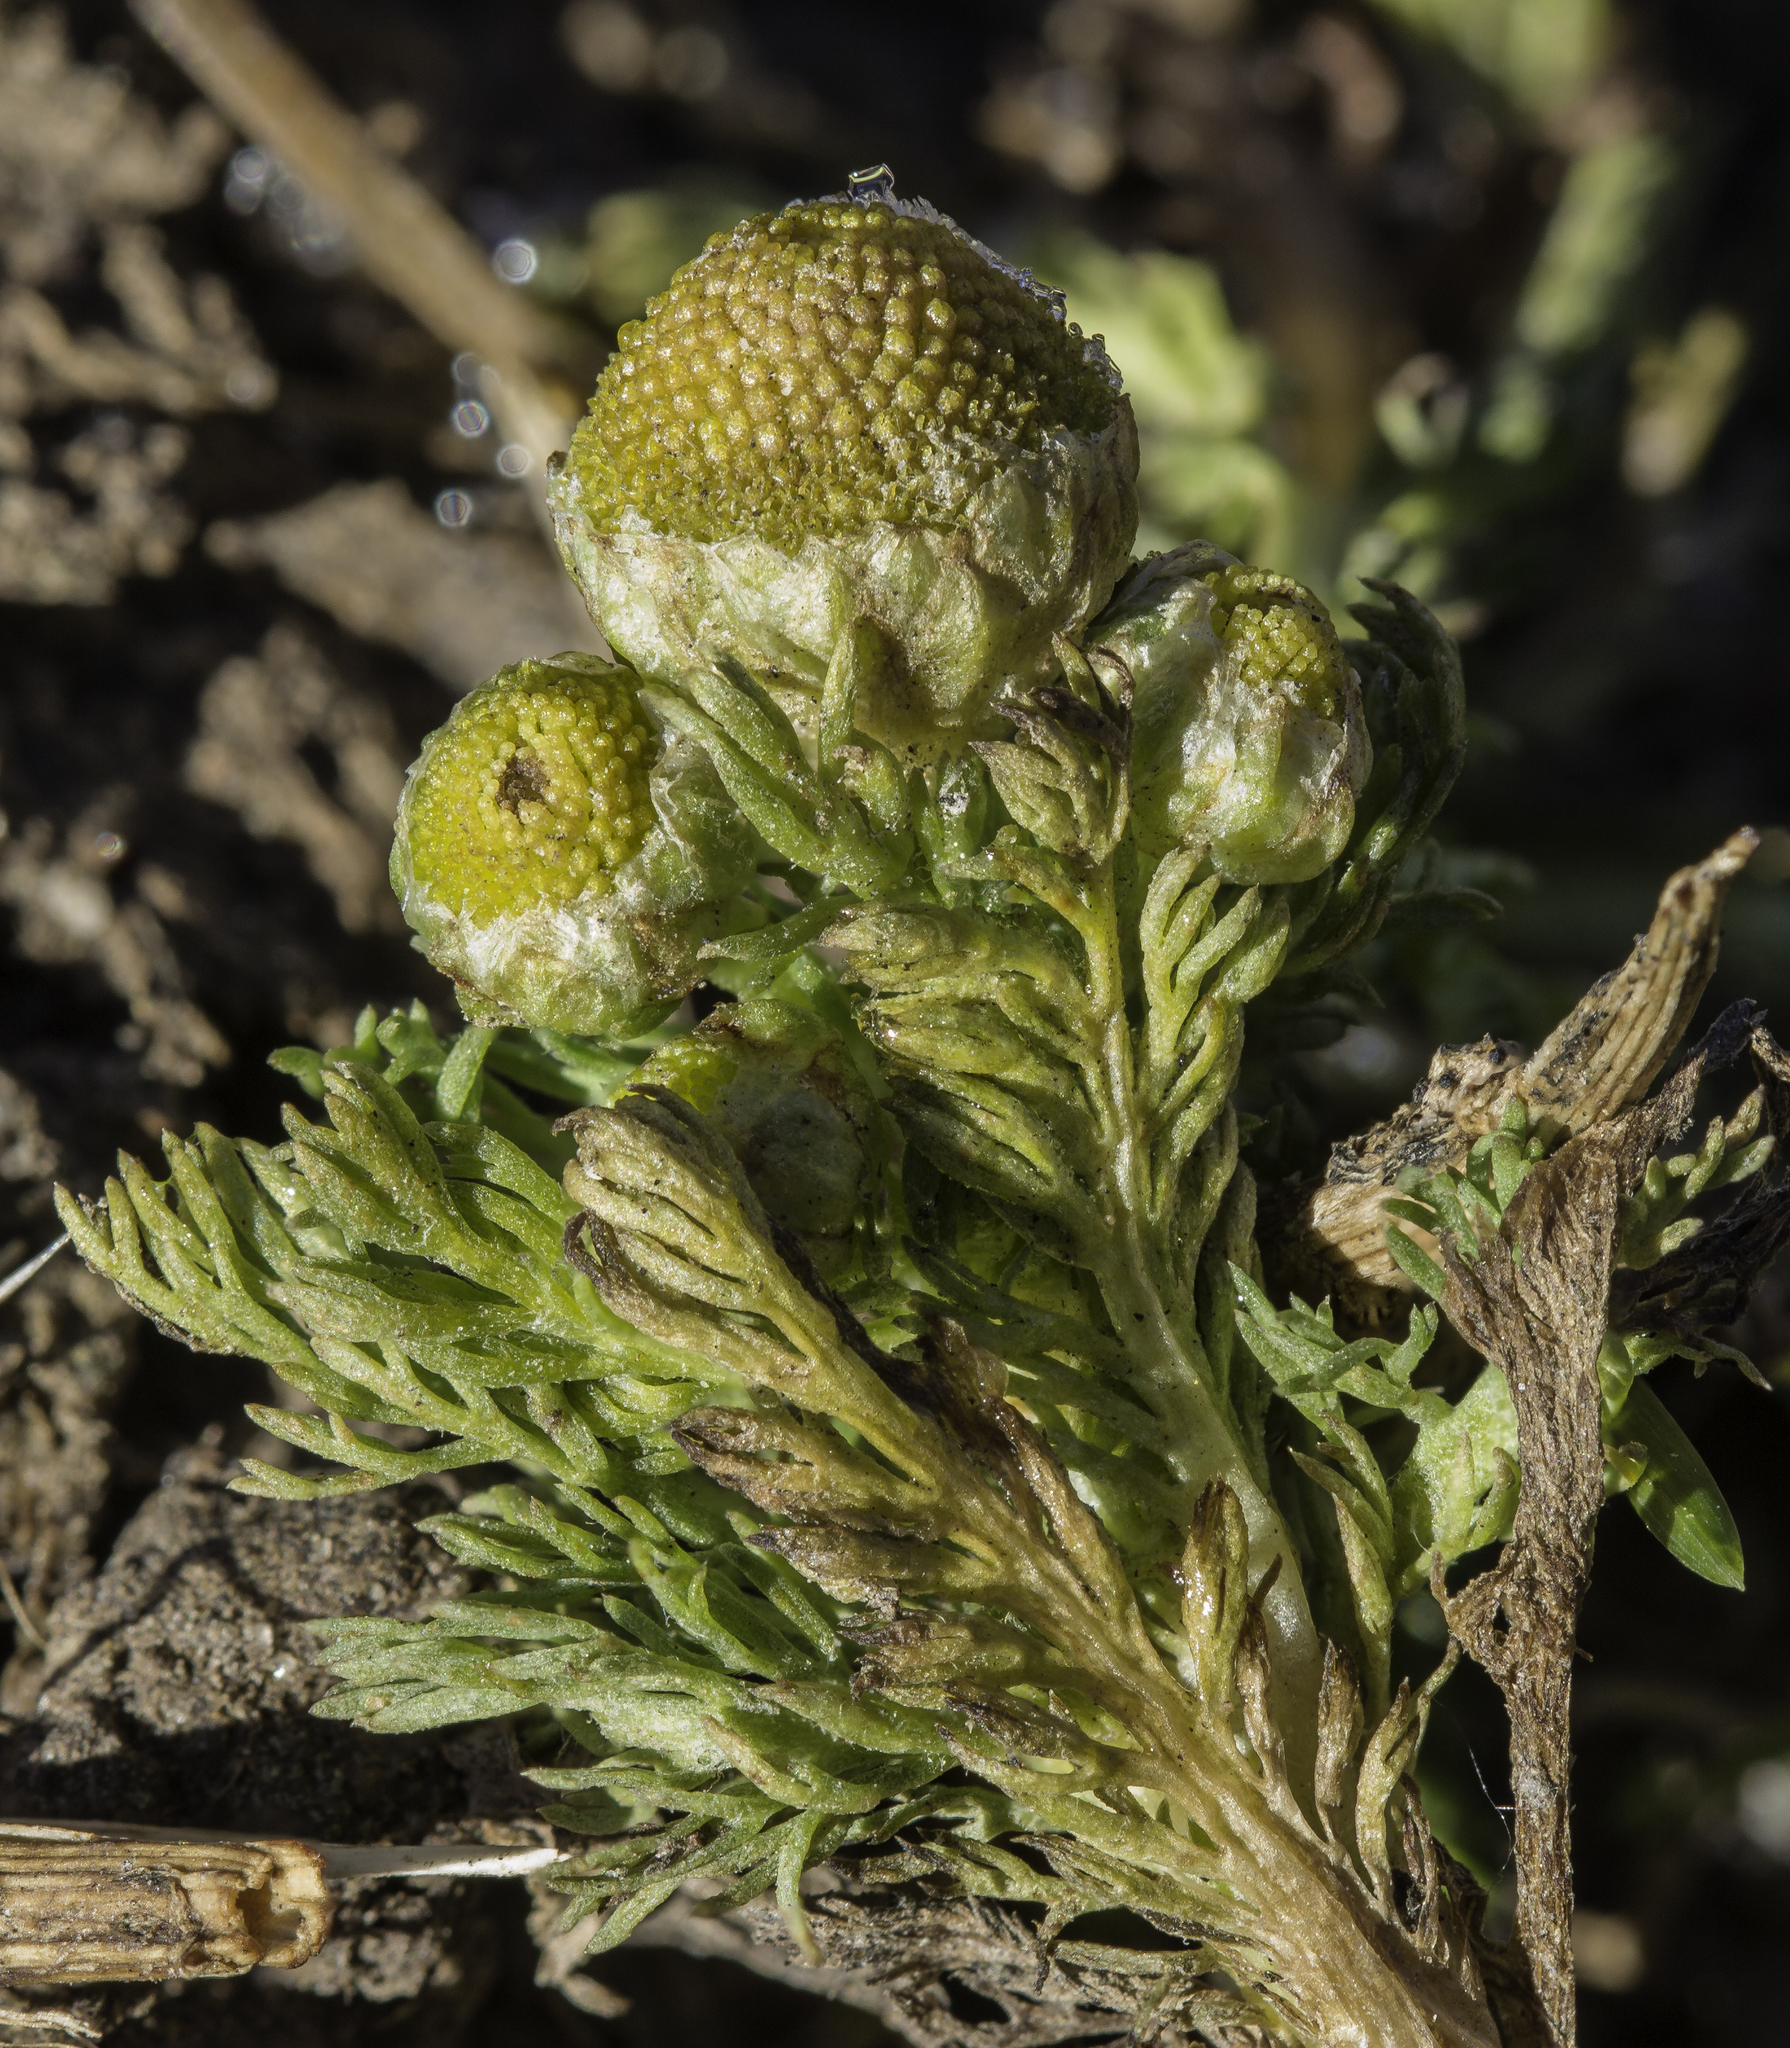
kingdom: Plantae
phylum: Tracheophyta
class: Magnoliopsida
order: Asterales
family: Asteraceae
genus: Matricaria
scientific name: Matricaria discoidea
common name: Disc mayweed
